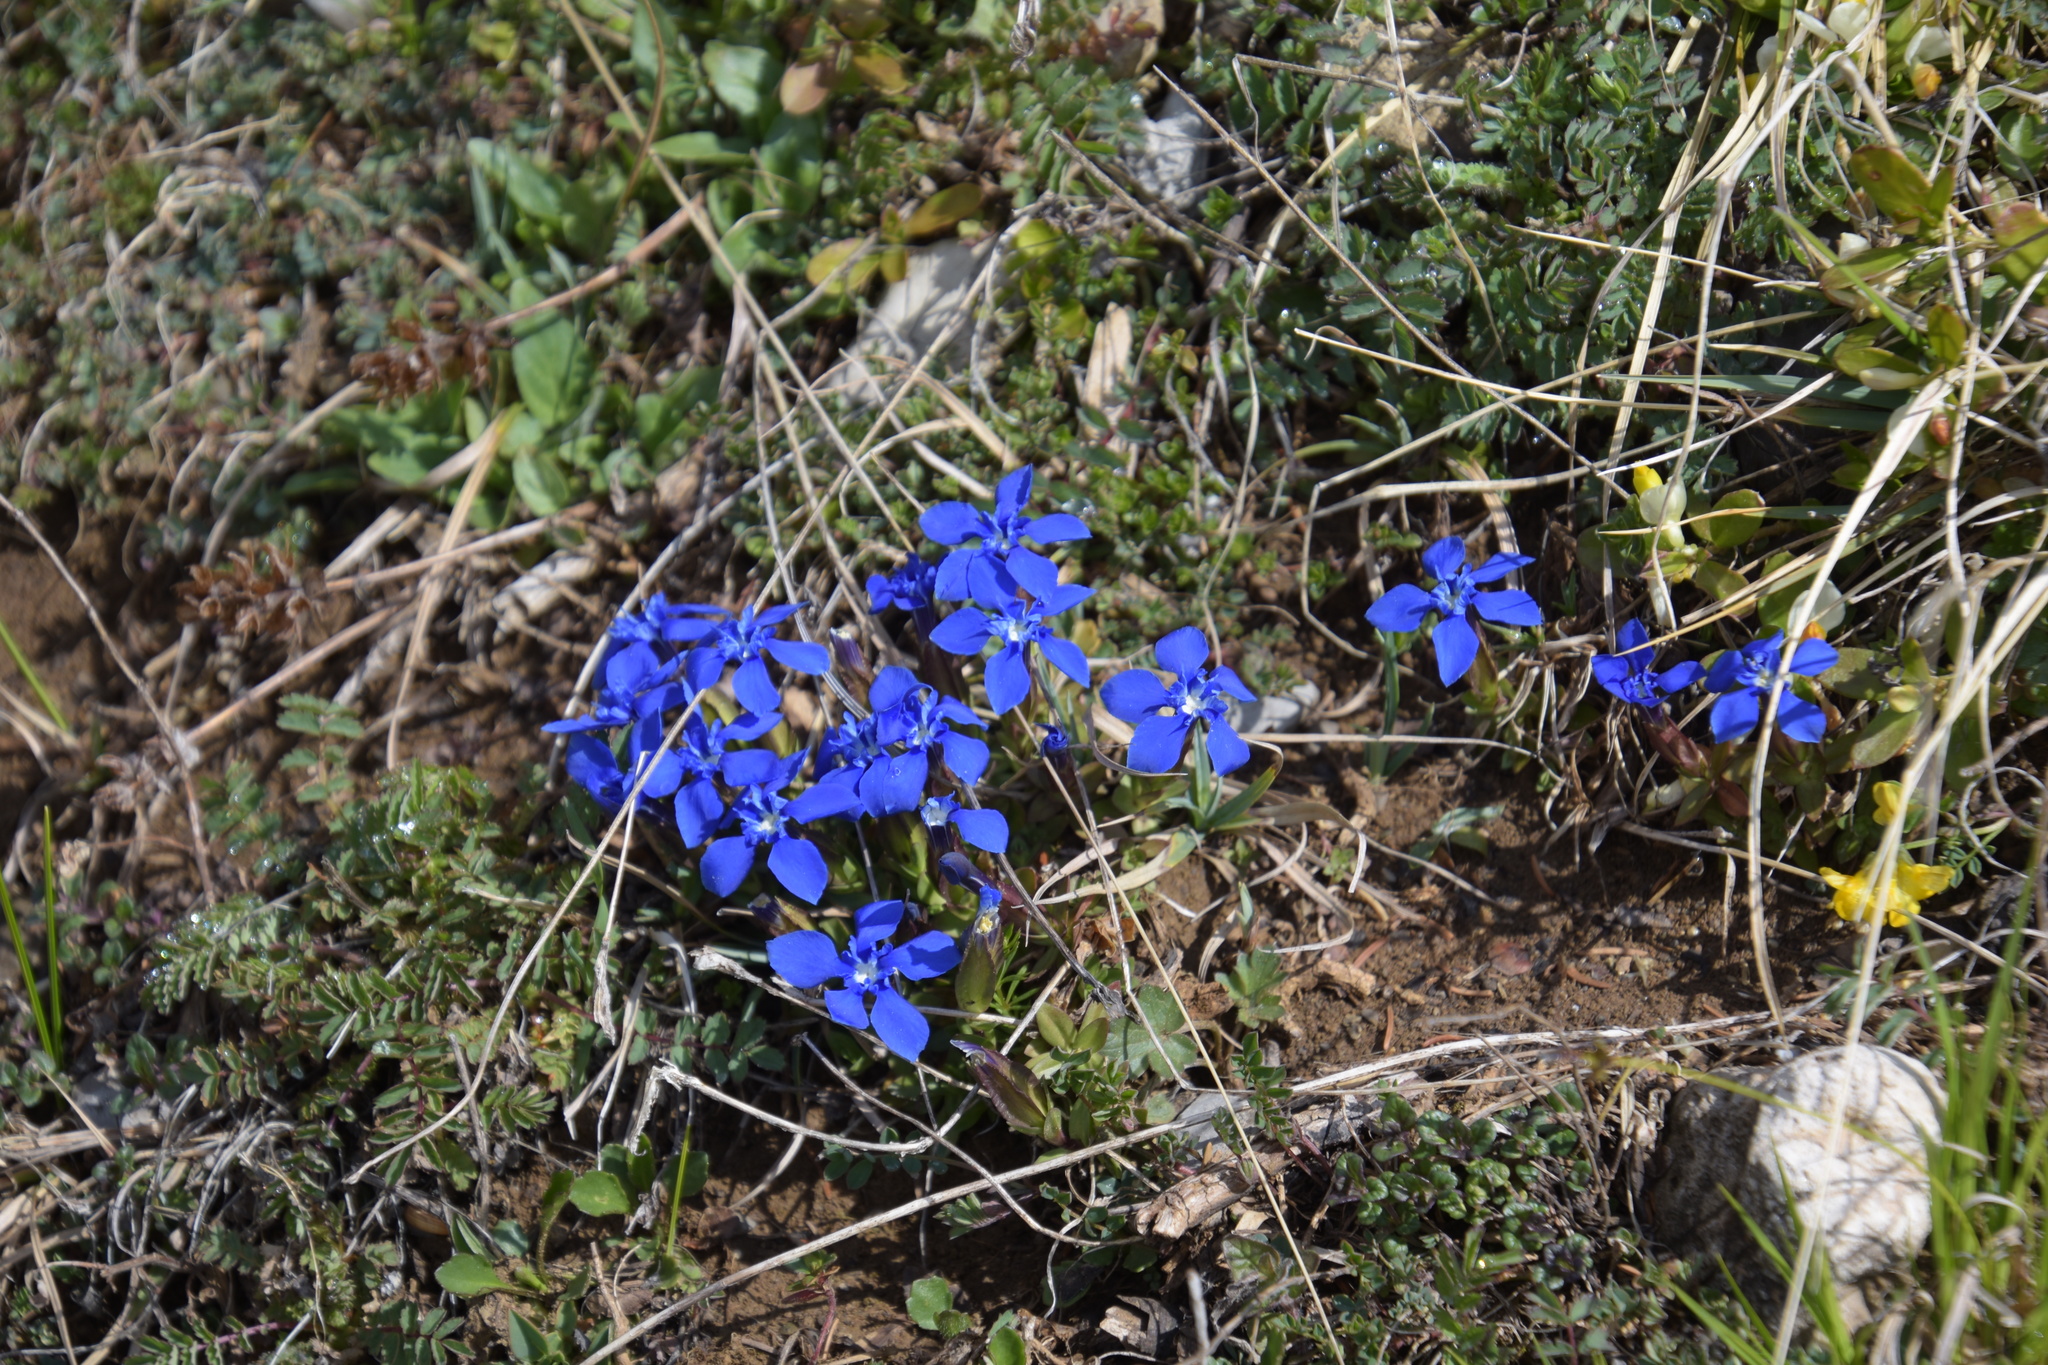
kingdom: Plantae
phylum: Tracheophyta
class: Magnoliopsida
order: Gentianales
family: Gentianaceae
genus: Gentiana
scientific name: Gentiana verna
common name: Spring gentian
